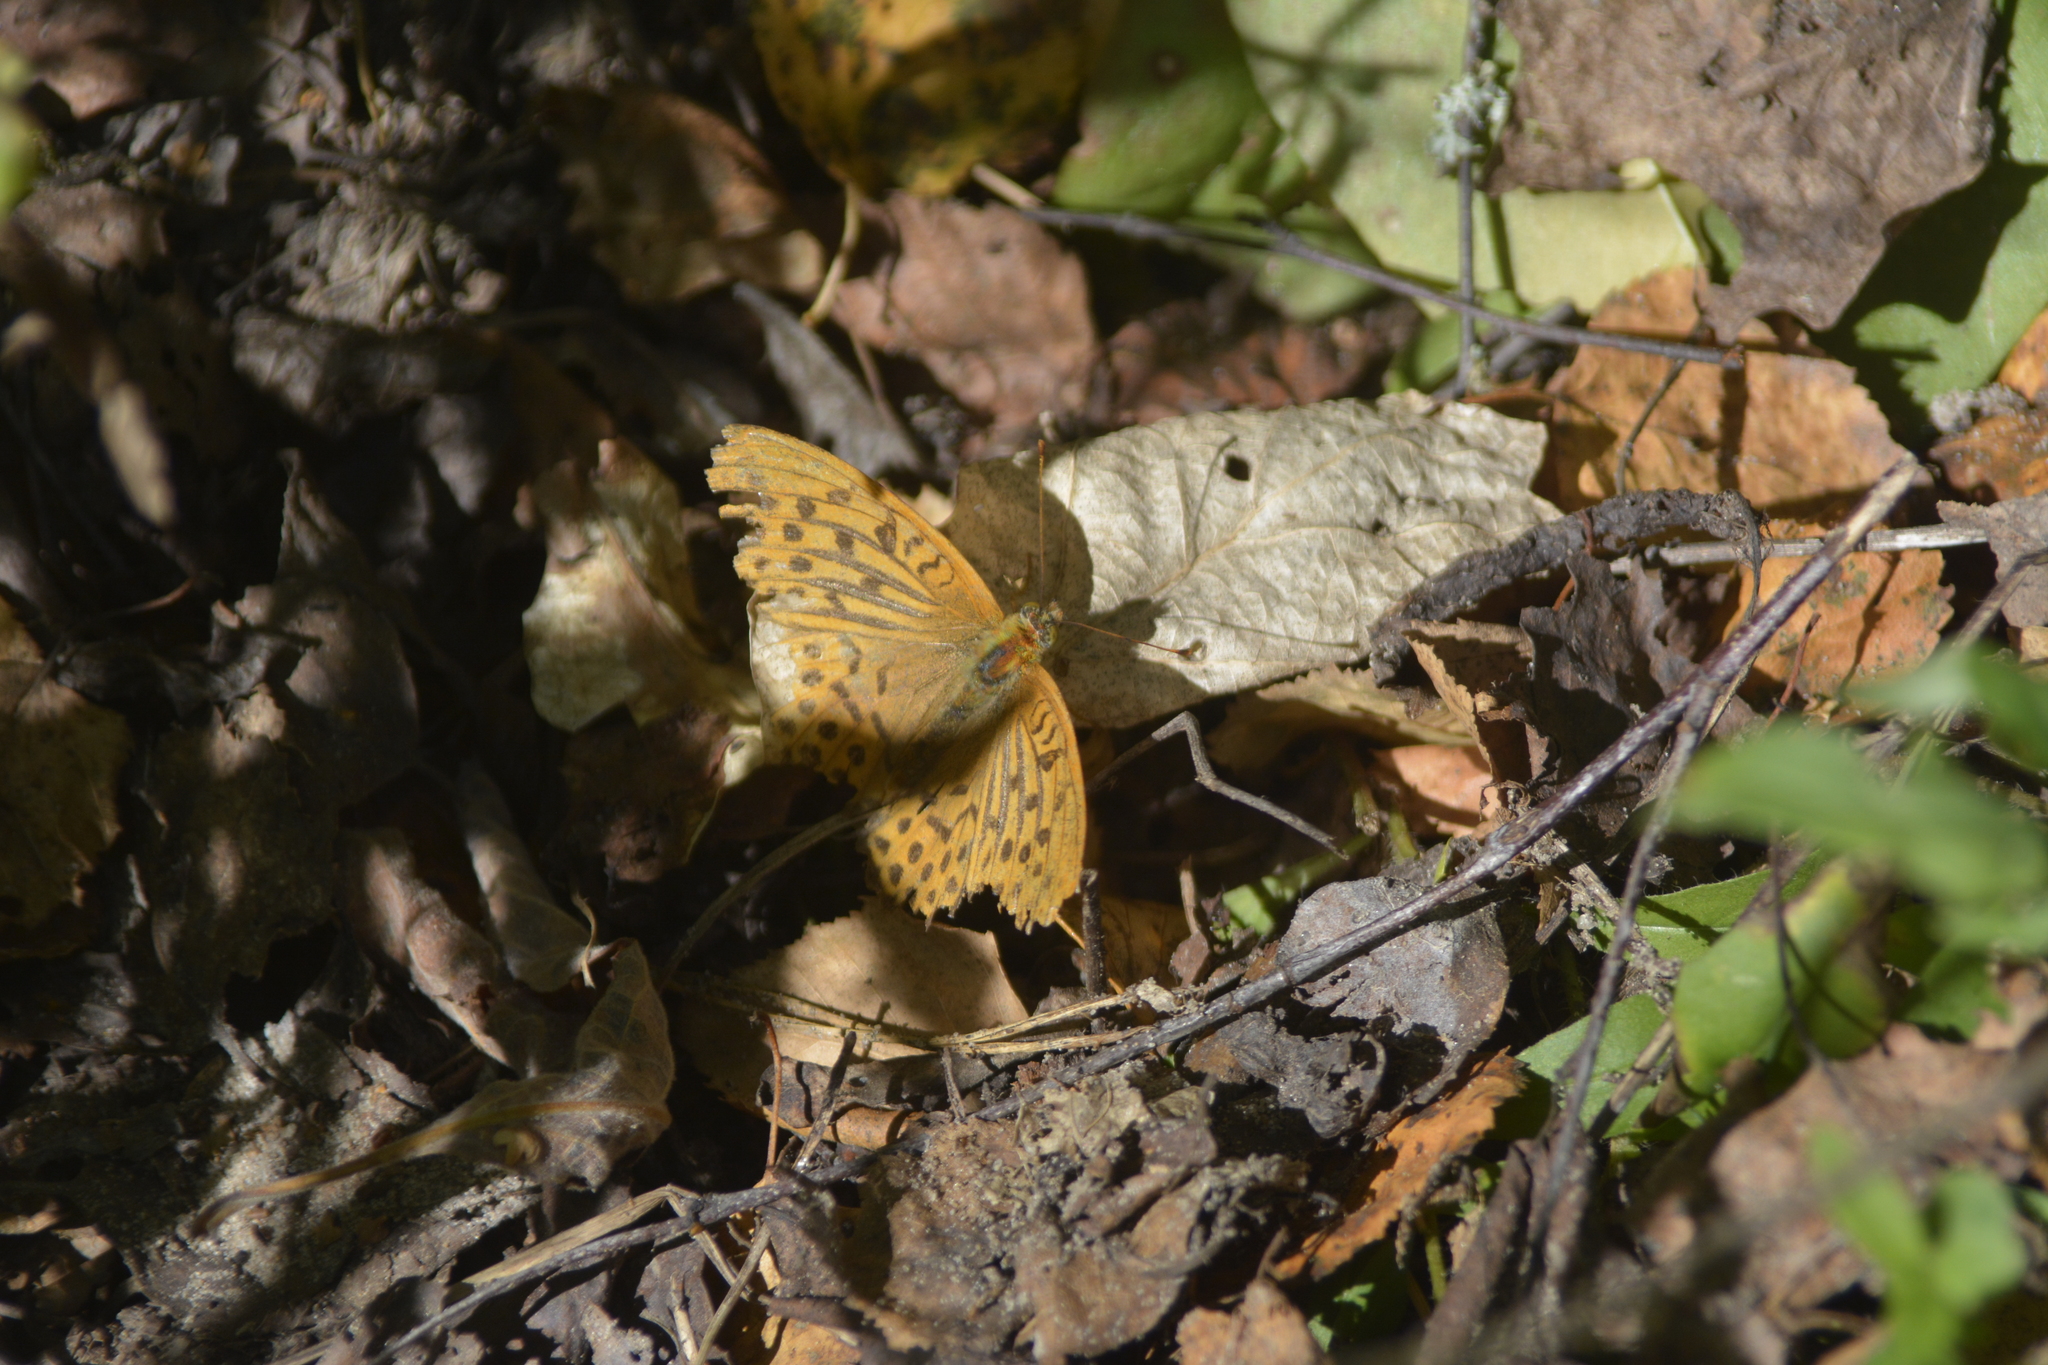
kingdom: Animalia
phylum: Arthropoda
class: Insecta
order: Lepidoptera
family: Nymphalidae
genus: Argynnis
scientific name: Argynnis paphia
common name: Silver-washed fritillary
